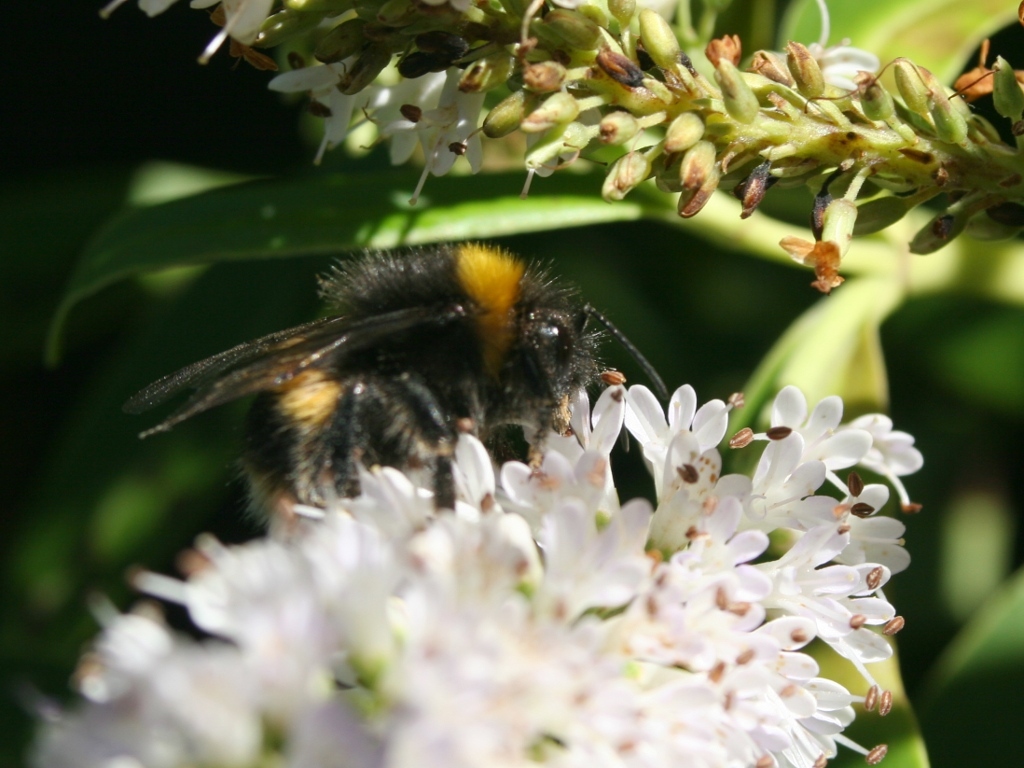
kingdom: Animalia
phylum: Arthropoda
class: Insecta
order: Hymenoptera
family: Apidae
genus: Bombus
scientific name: Bombus terrestris
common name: Buff-tailed bumblebee
